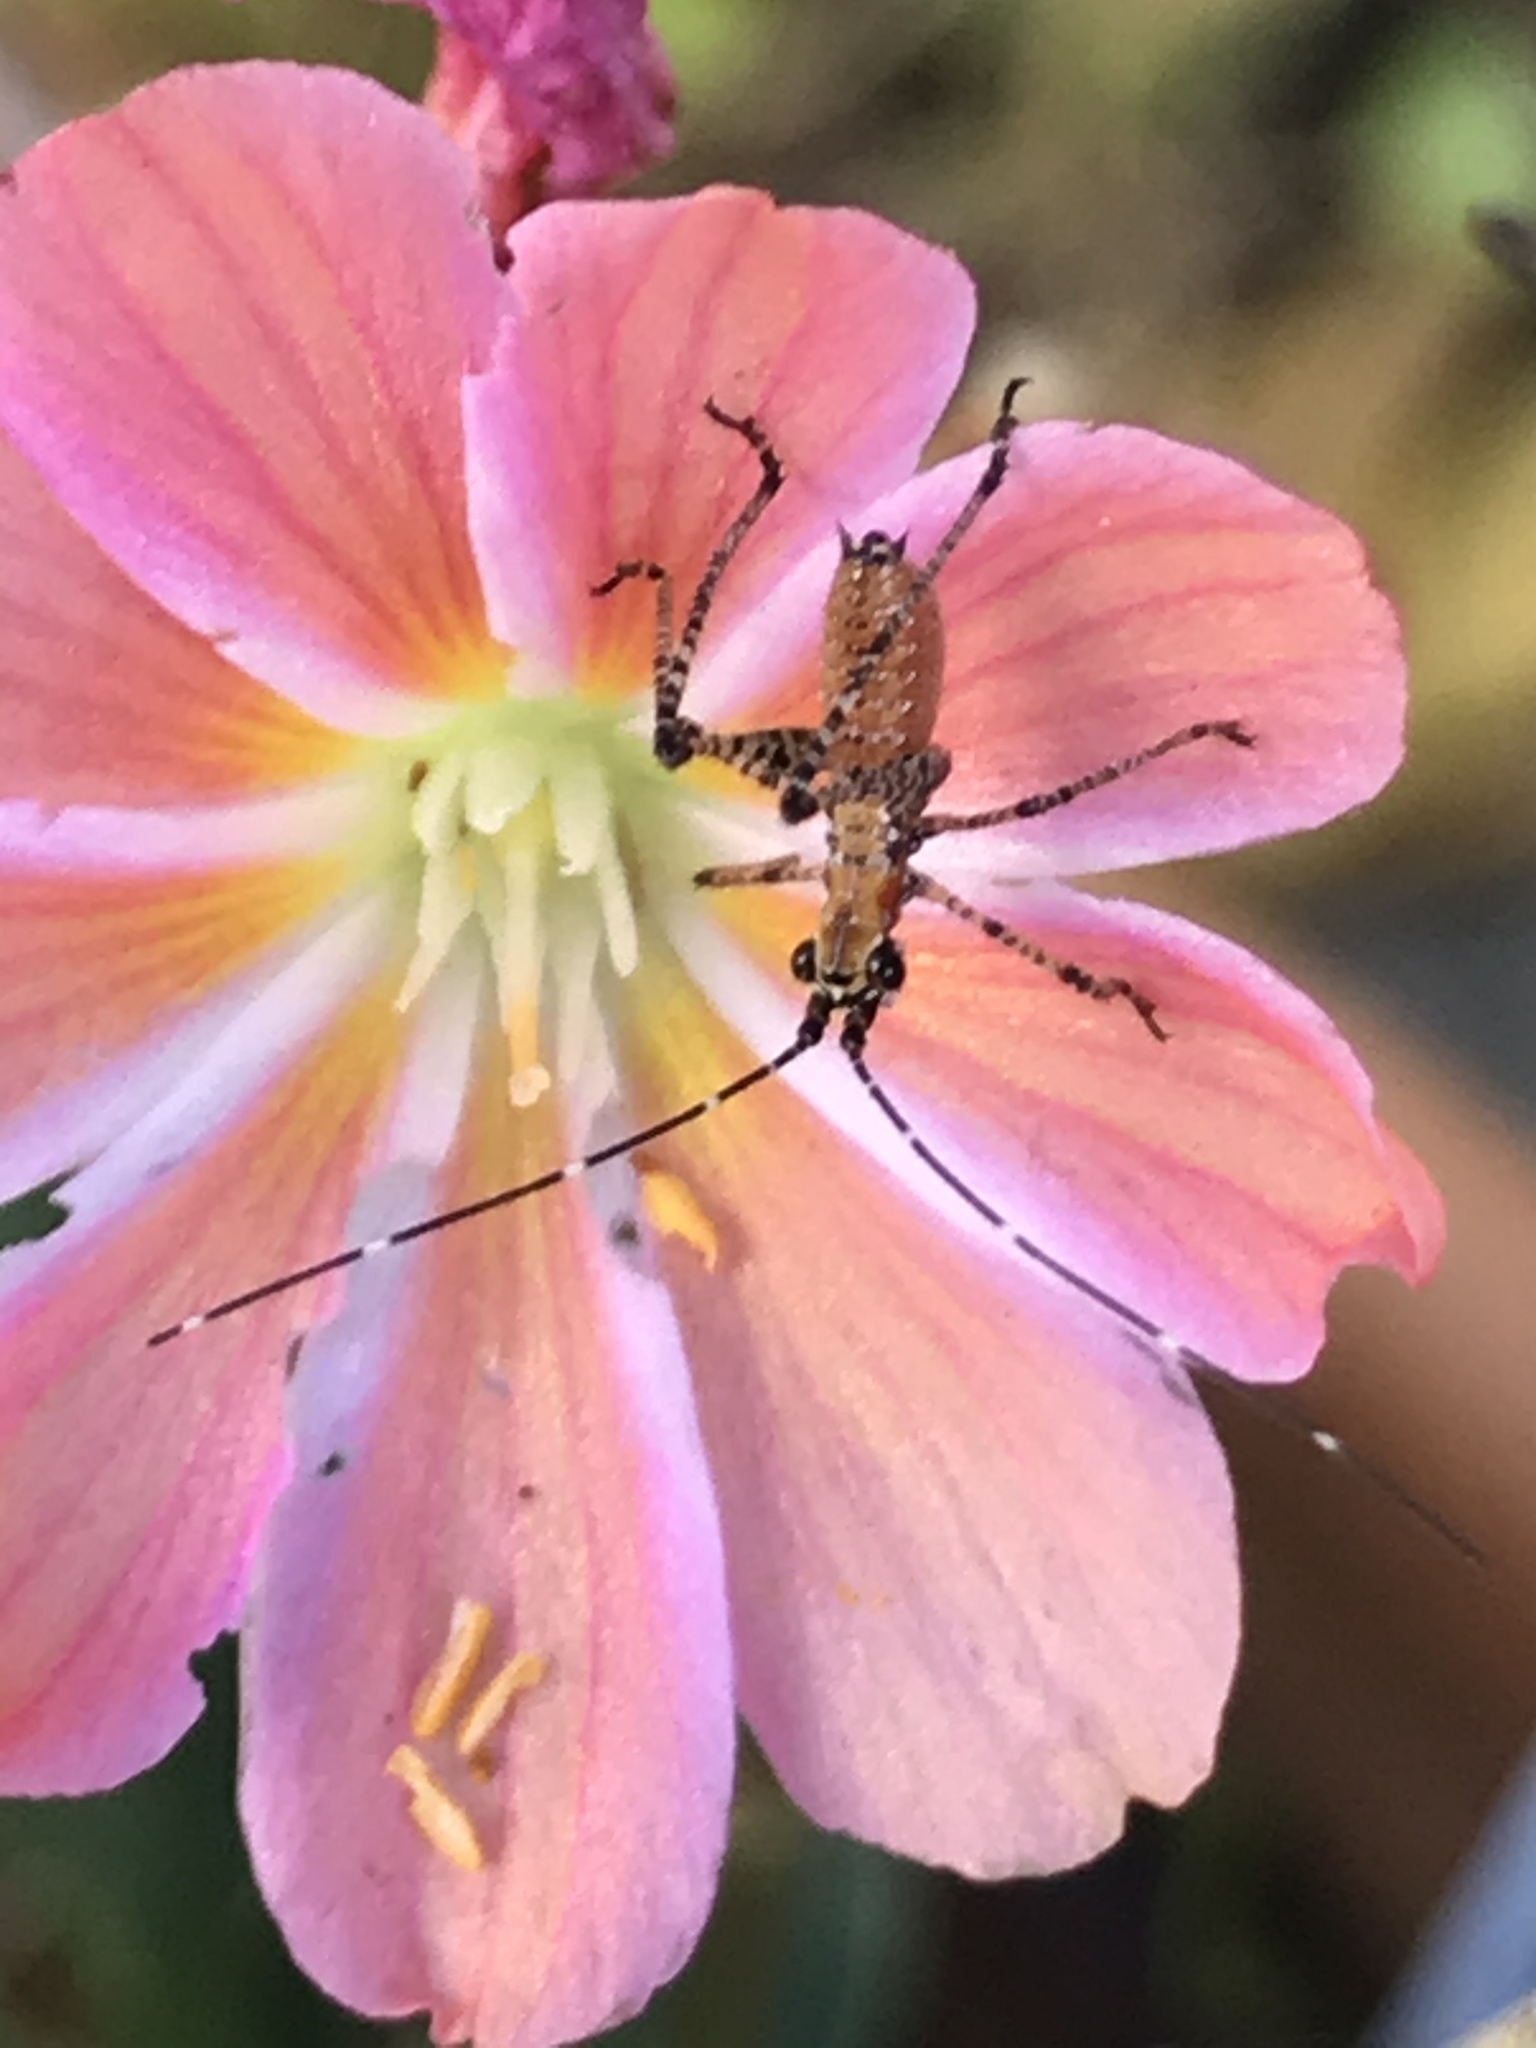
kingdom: Animalia
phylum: Arthropoda
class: Insecta
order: Orthoptera
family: Tettigoniidae
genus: Scudderia
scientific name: Scudderia
